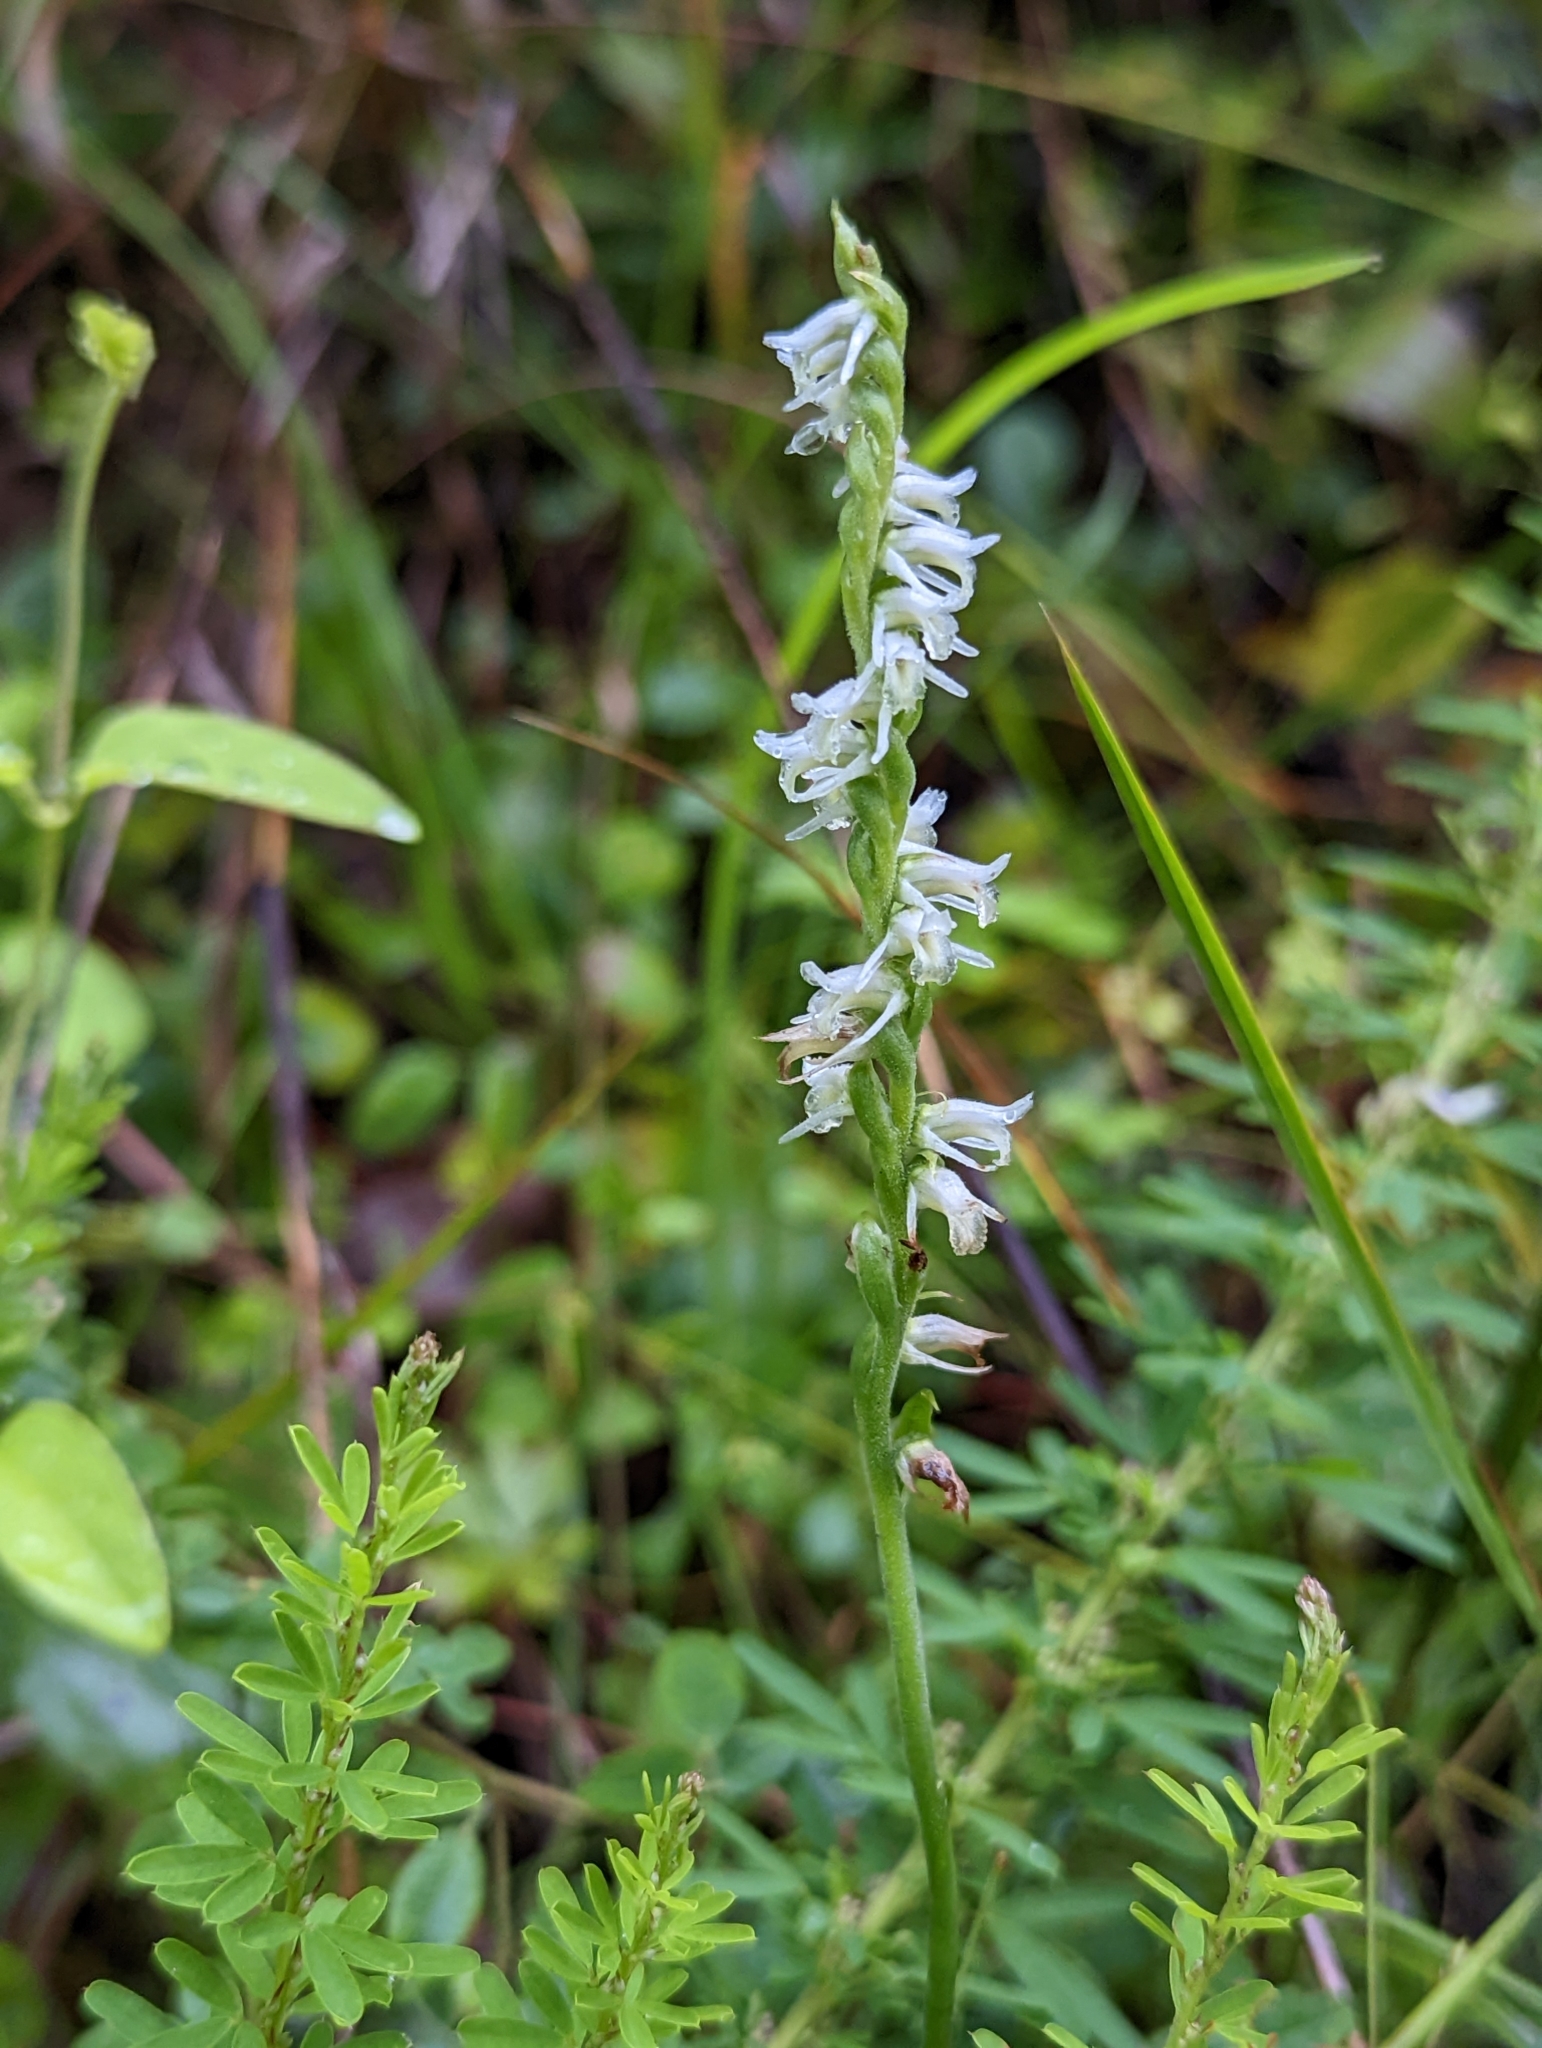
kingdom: Plantae
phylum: Tracheophyta
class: Liliopsida
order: Asparagales
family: Orchidaceae
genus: Spiranthes
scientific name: Spiranthes vernalis
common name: Spring ladies'-tresses
